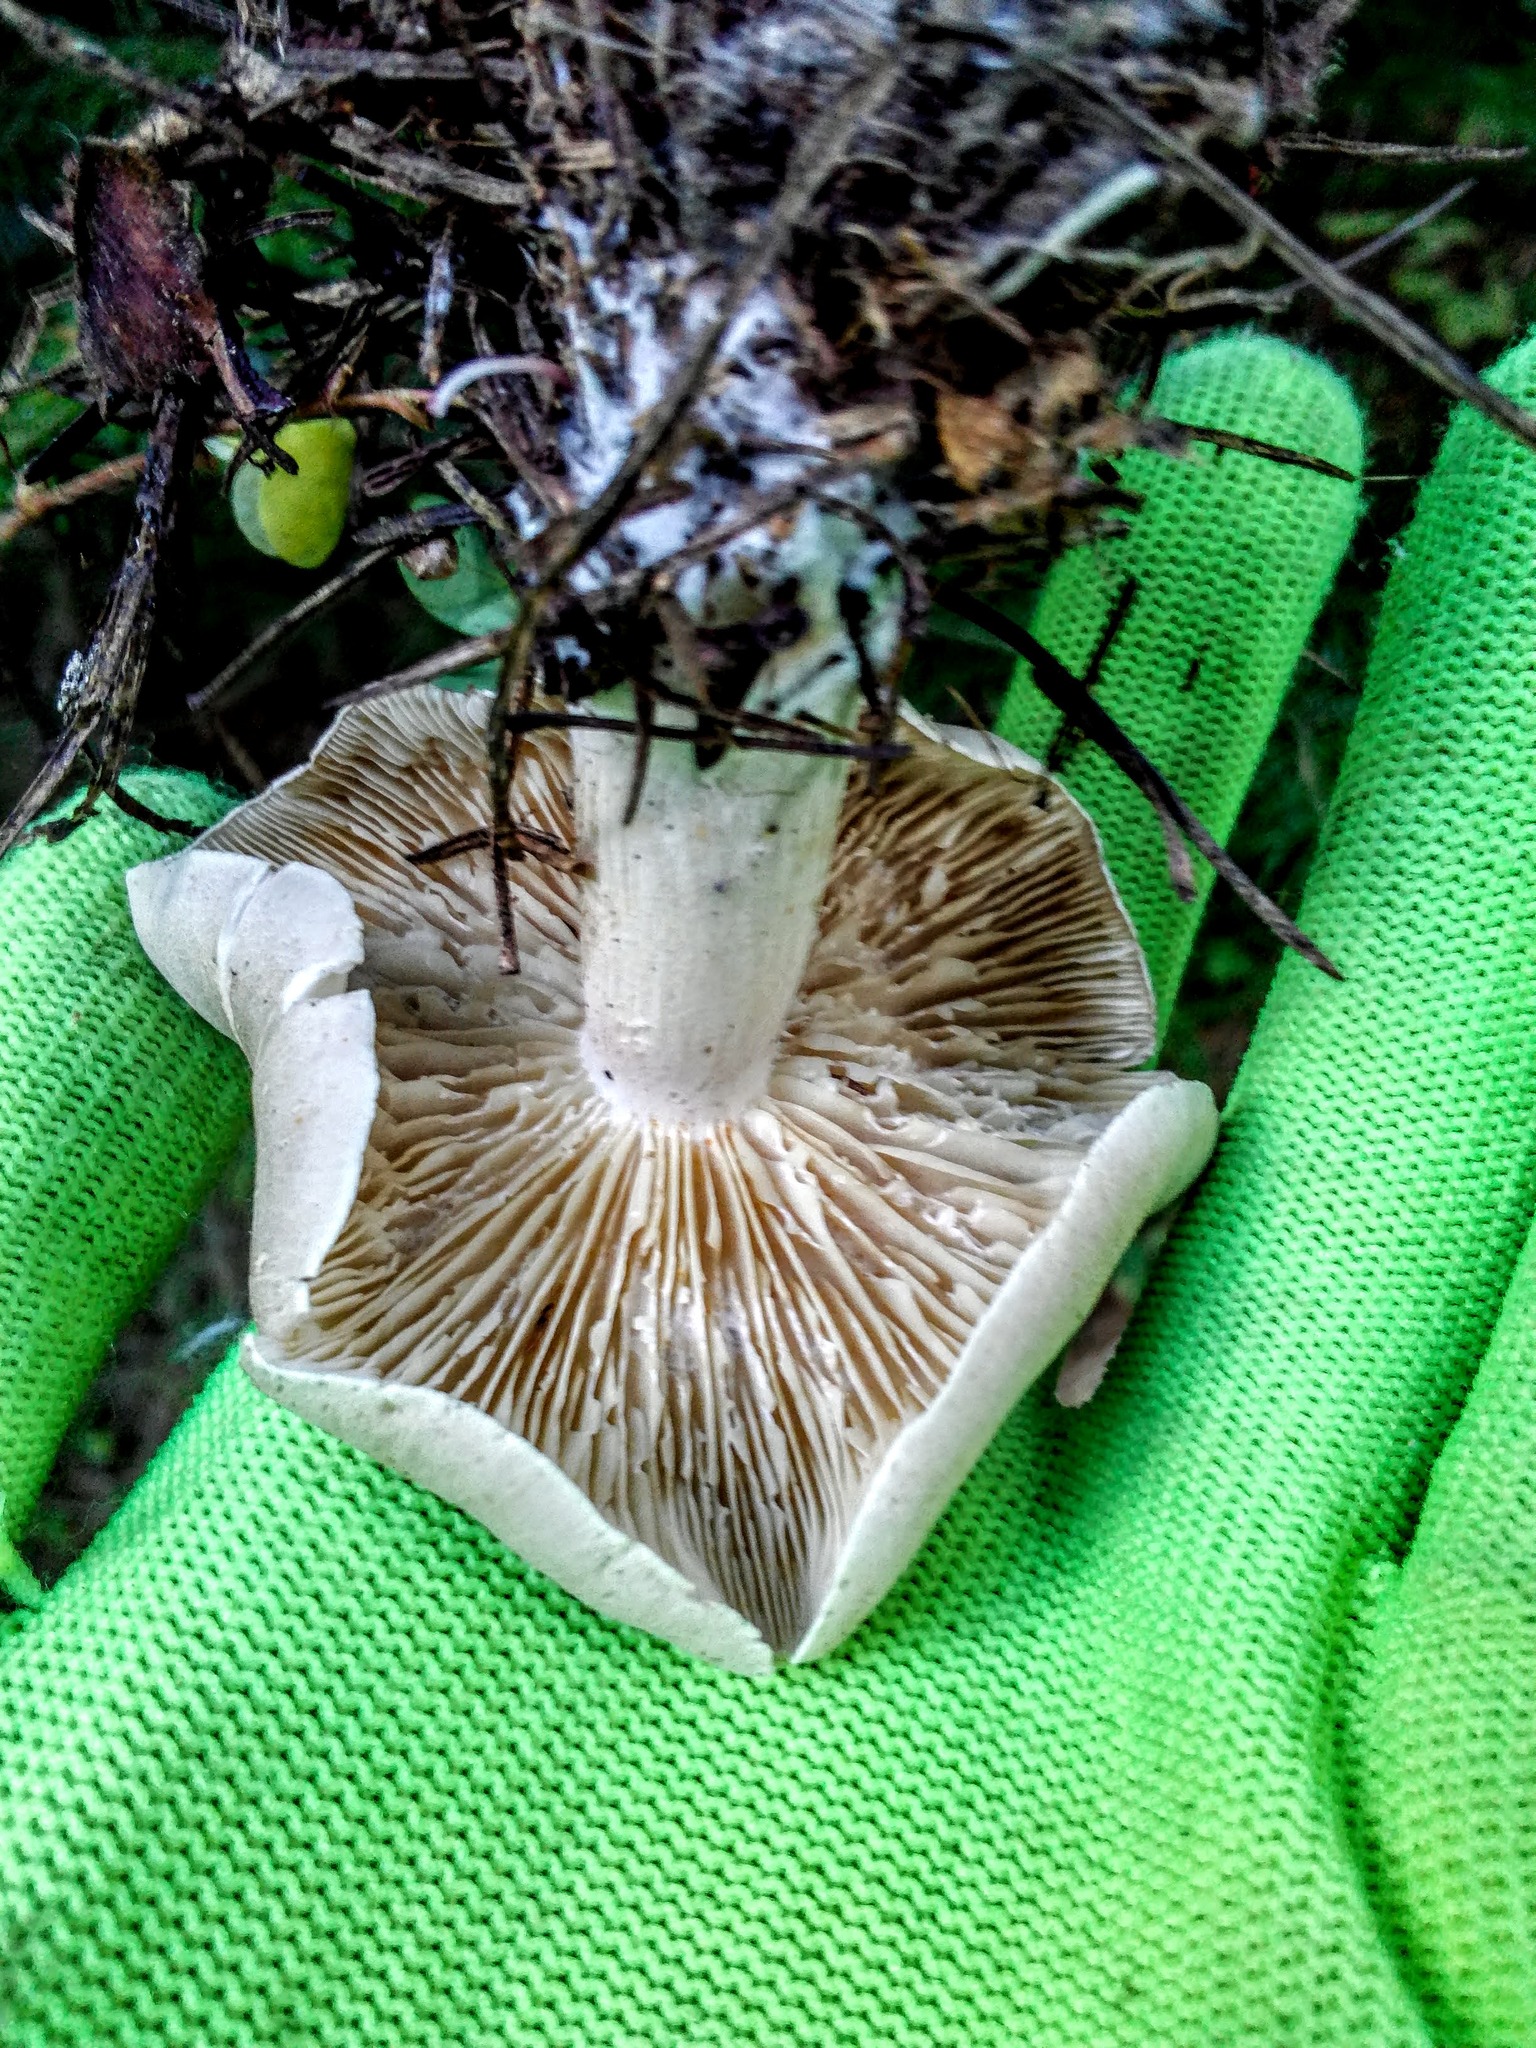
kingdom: Fungi
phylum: Basidiomycota
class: Agaricomycetes
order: Agaricales
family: Tricholomataceae
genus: Clitocybe
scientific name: Clitocybe nebularis
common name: Clouded agaric
